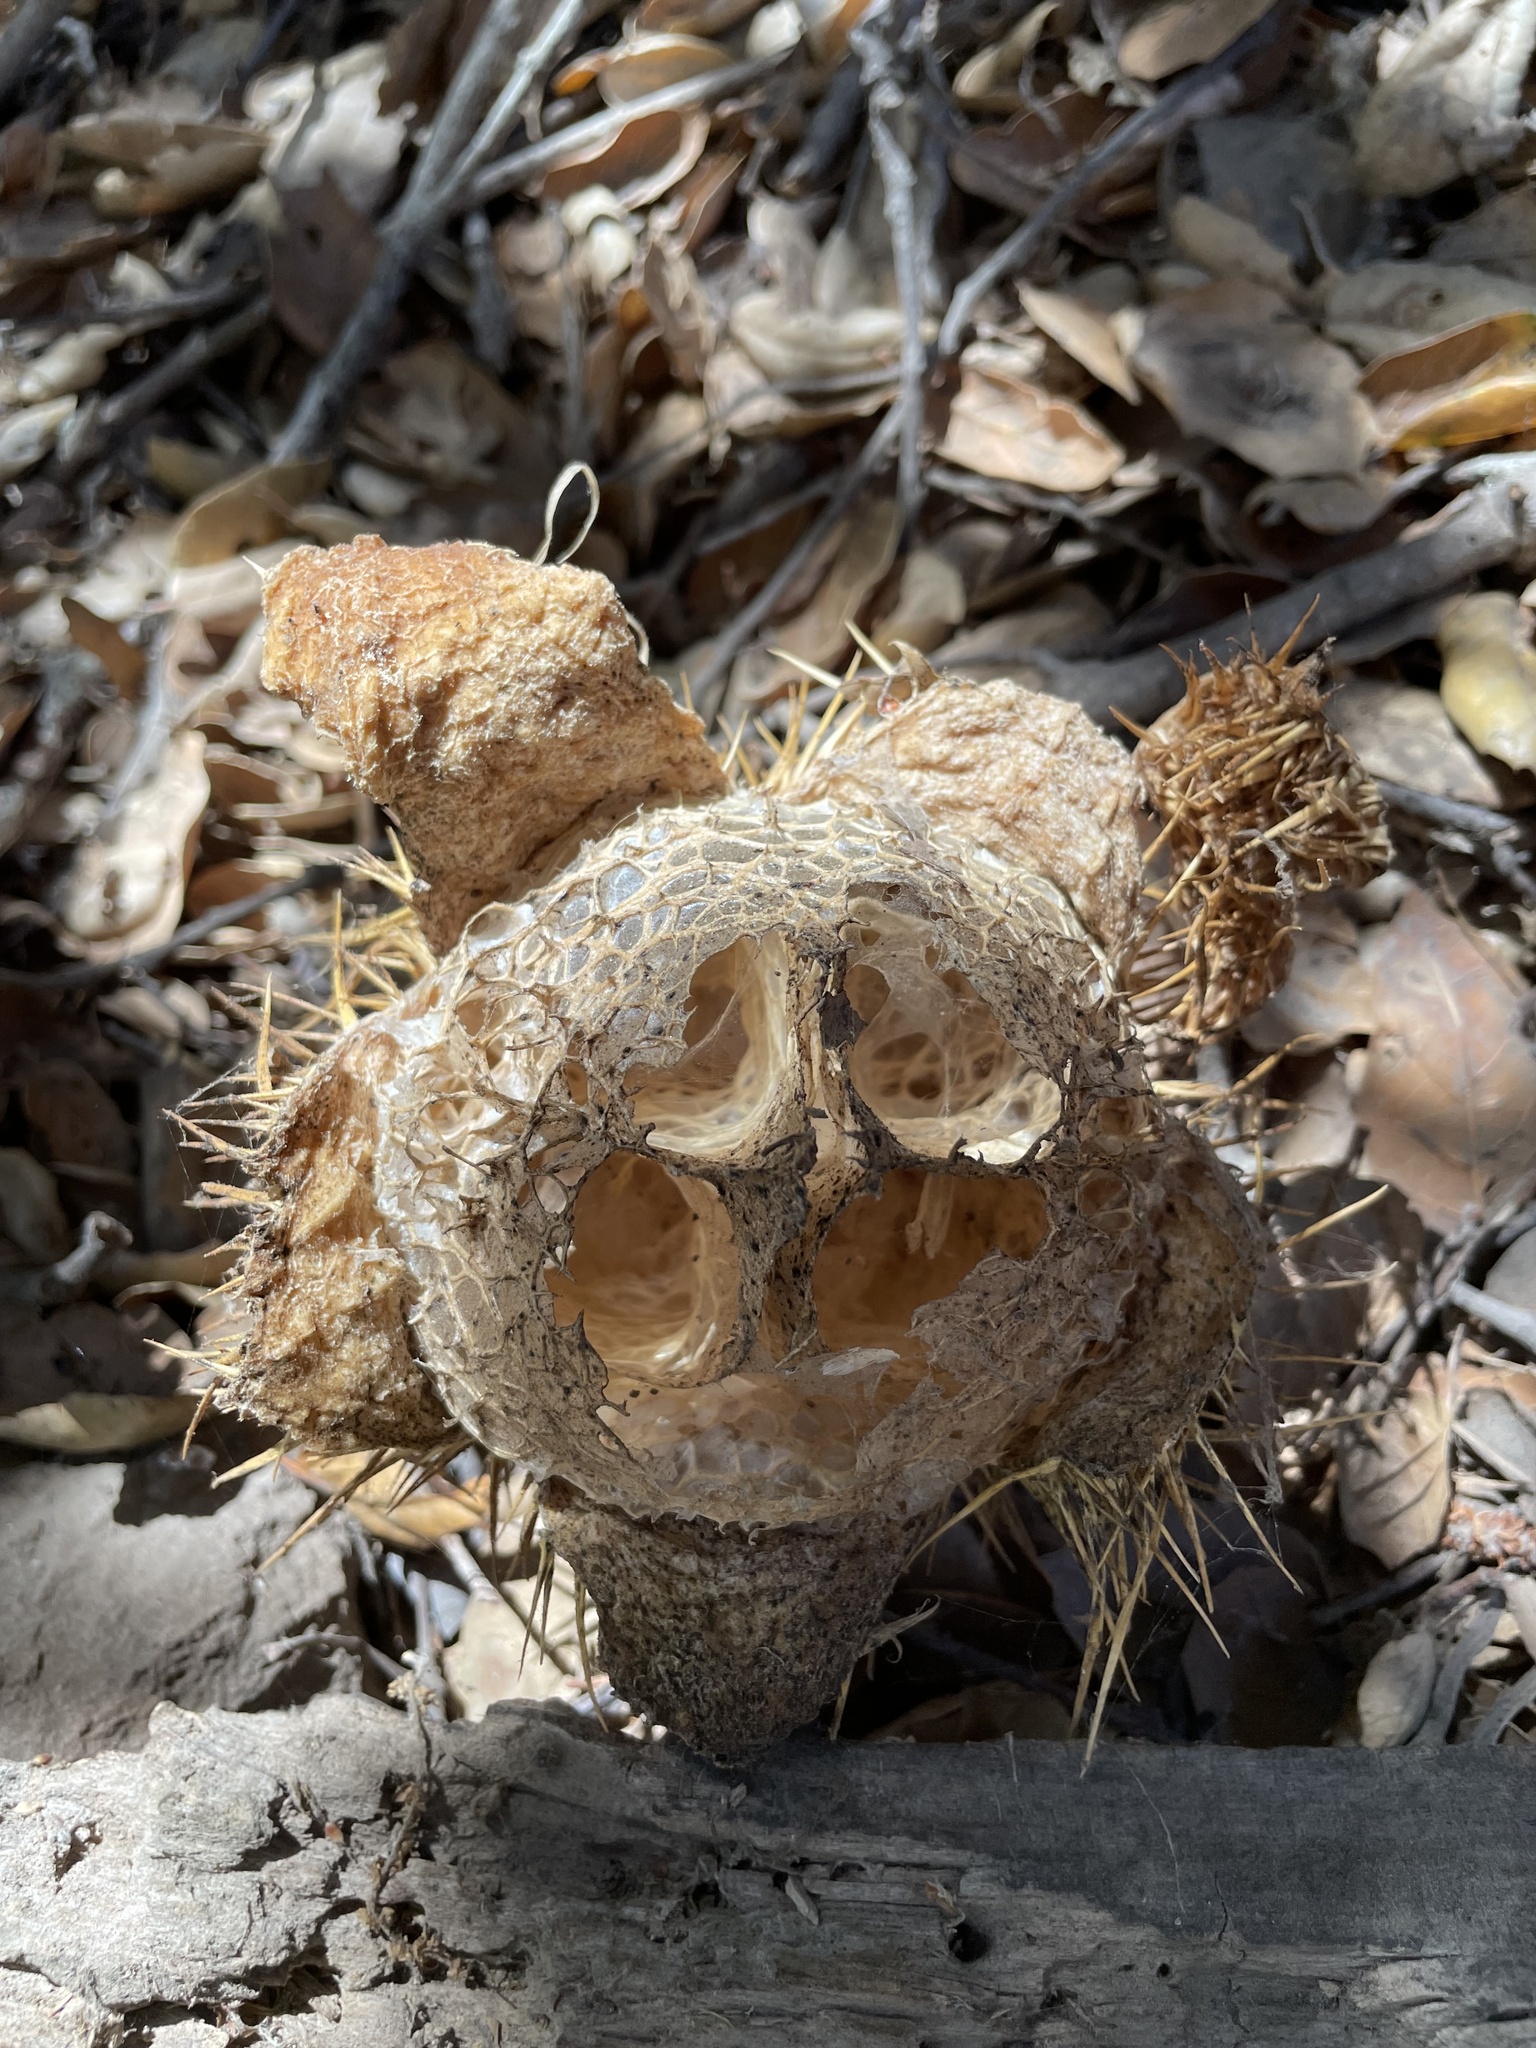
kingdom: Plantae
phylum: Tracheophyta
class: Magnoliopsida
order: Cucurbitales
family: Cucurbitaceae
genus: Marah
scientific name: Marah macrocarpa
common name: Cucamonga manroot
